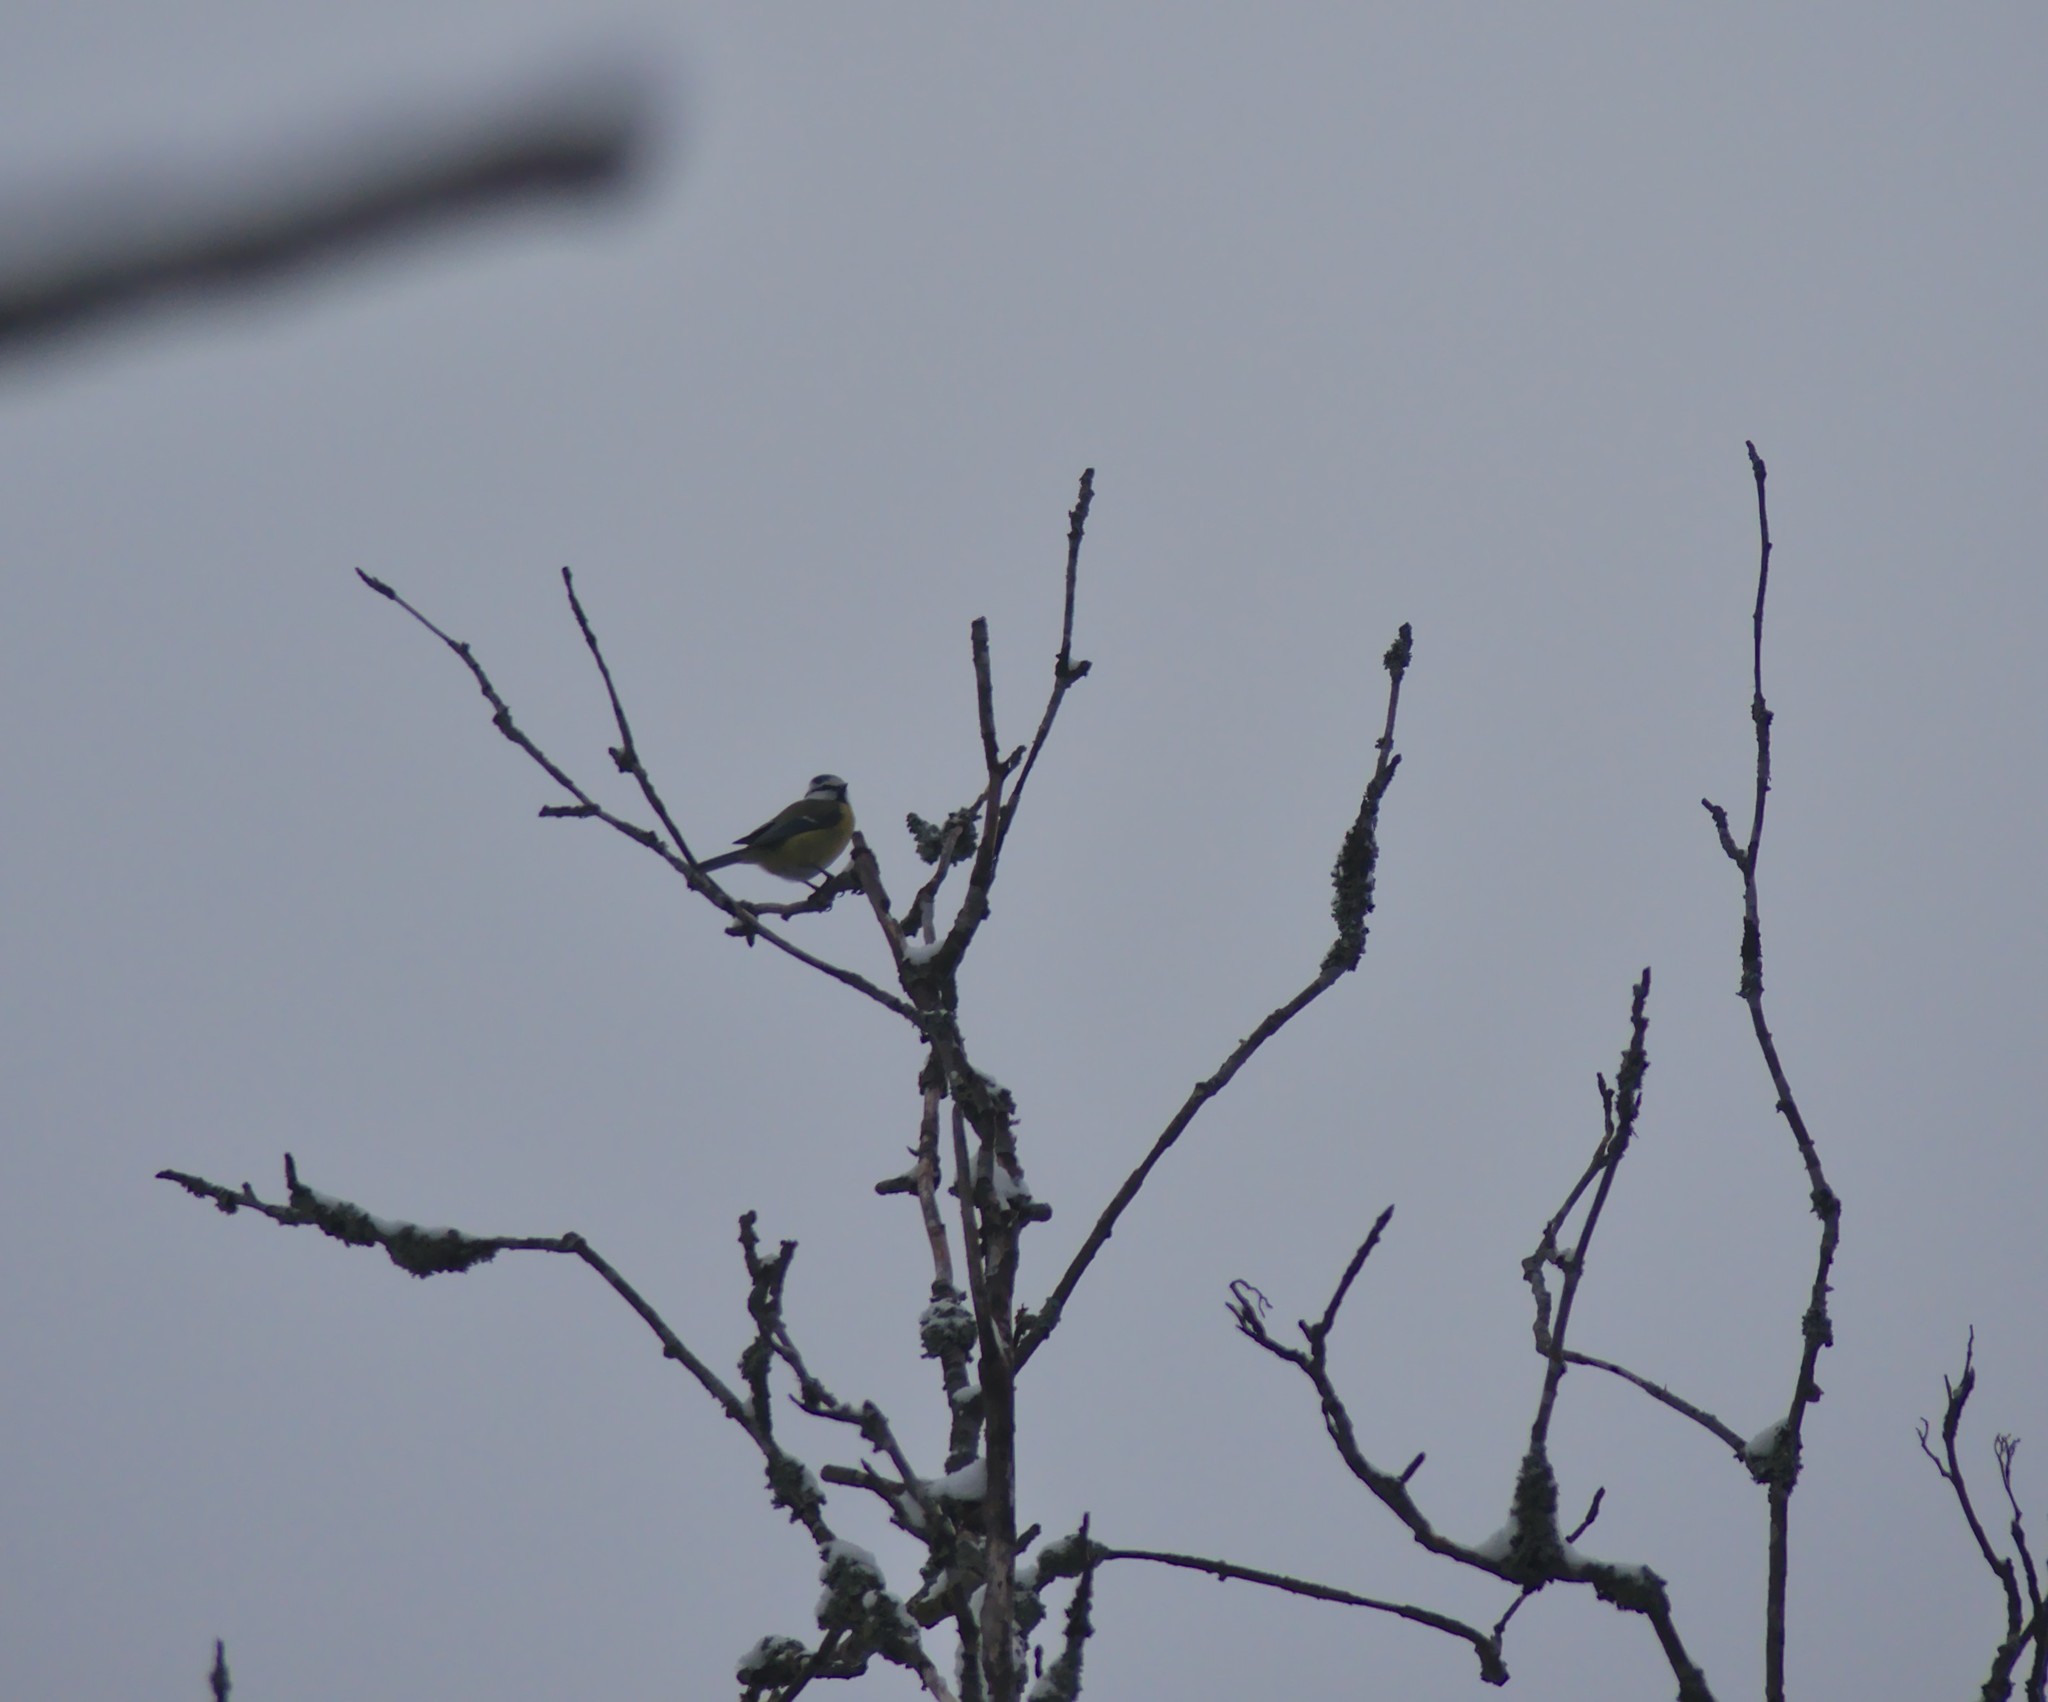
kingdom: Animalia
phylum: Chordata
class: Aves
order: Passeriformes
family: Paridae
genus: Cyanistes
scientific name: Cyanistes caeruleus
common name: Eurasian blue tit
